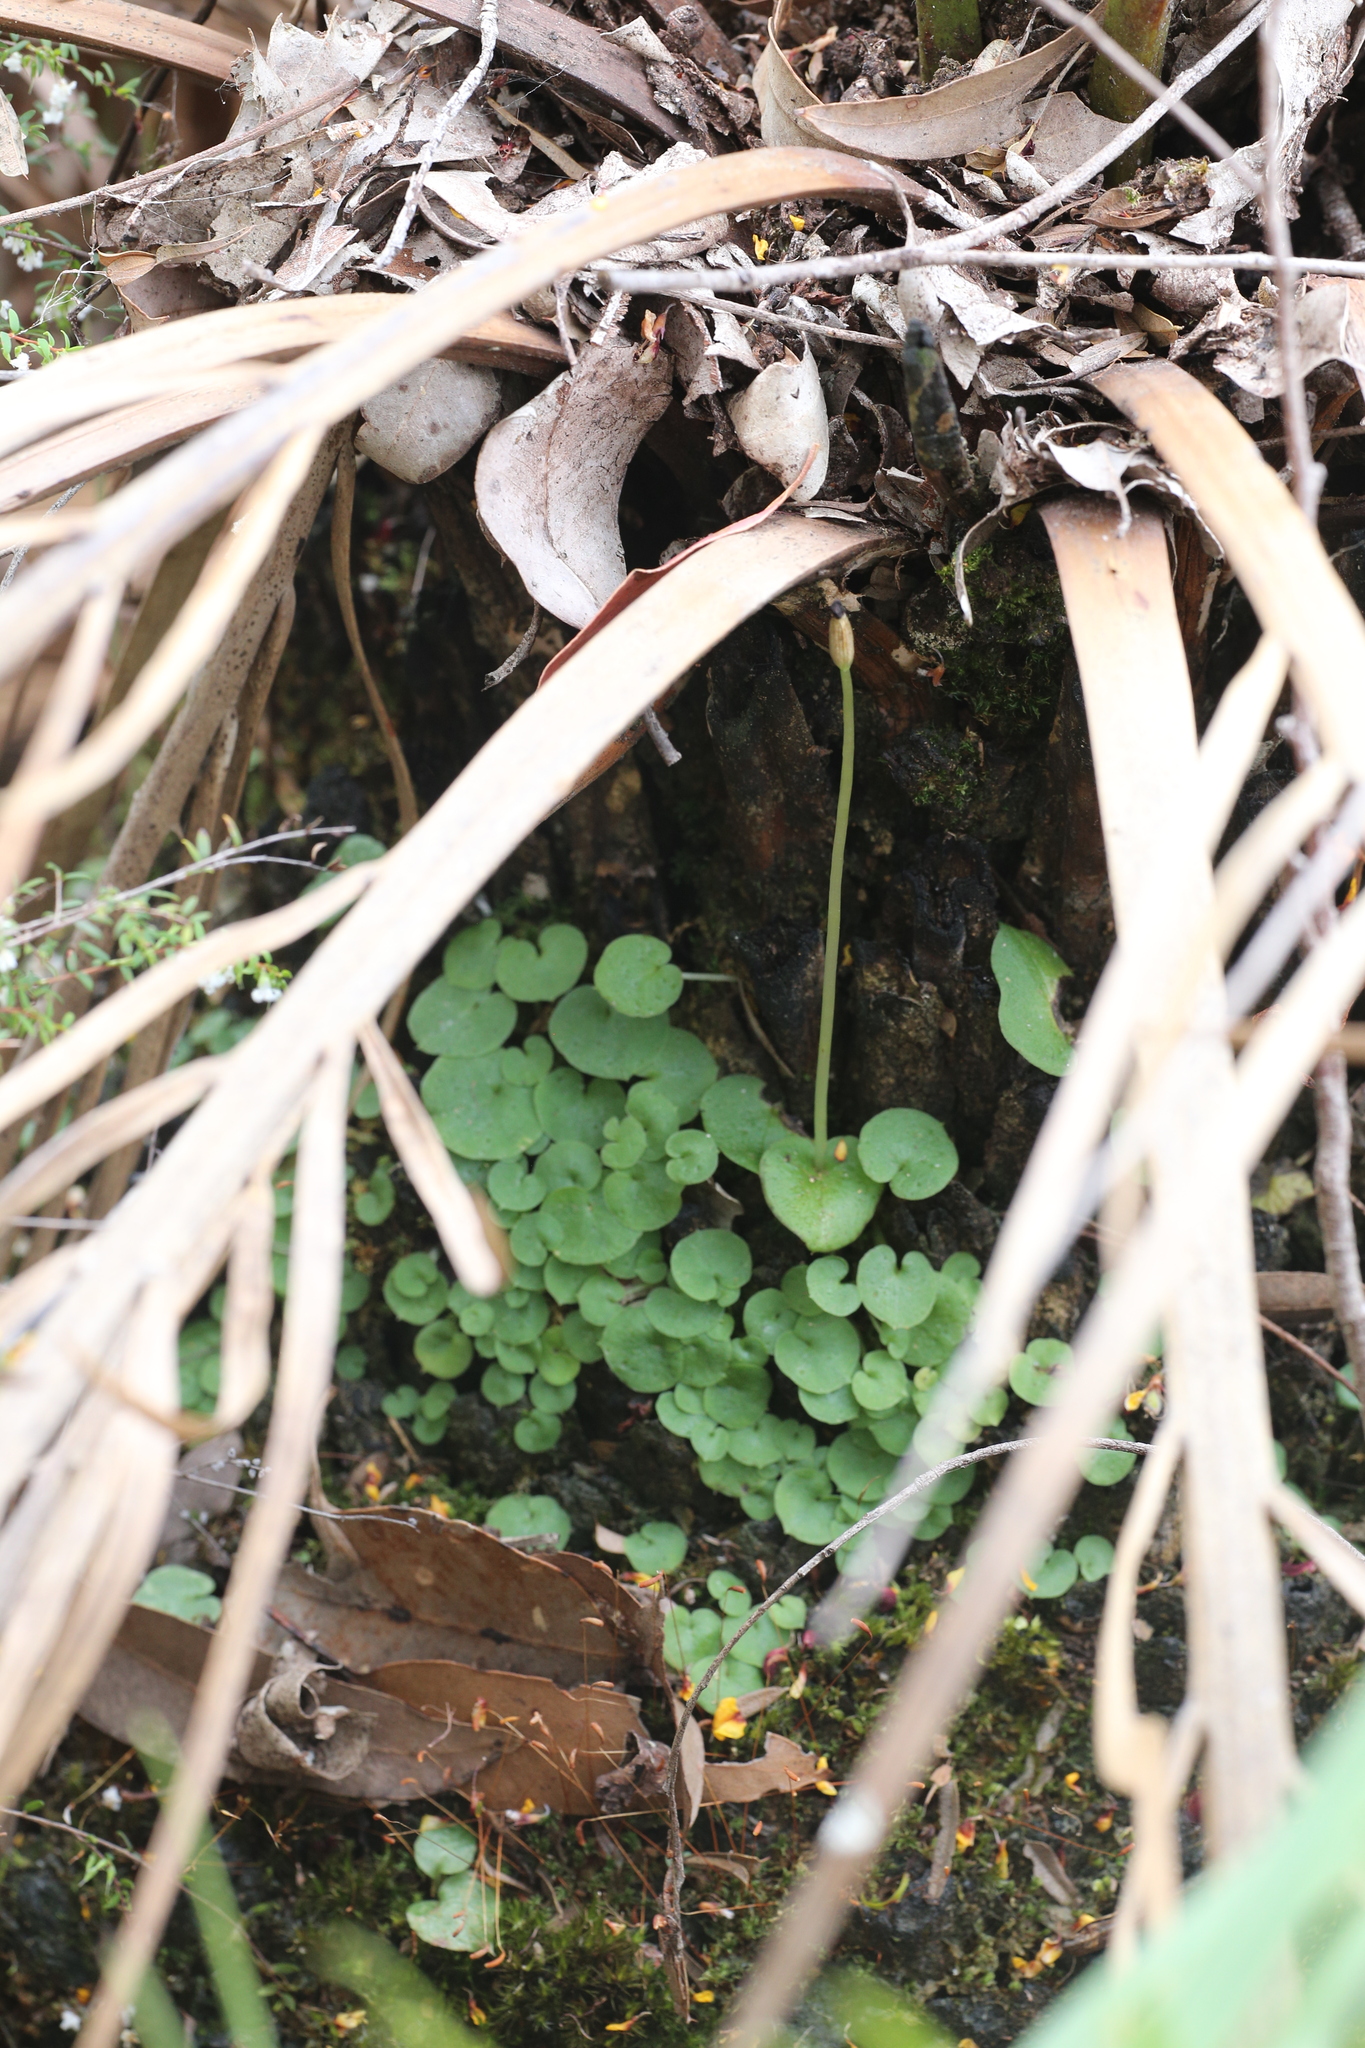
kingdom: Plantae
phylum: Tracheophyta
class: Liliopsida
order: Asparagales
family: Orchidaceae
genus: Corybas
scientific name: Corybas recurvus
